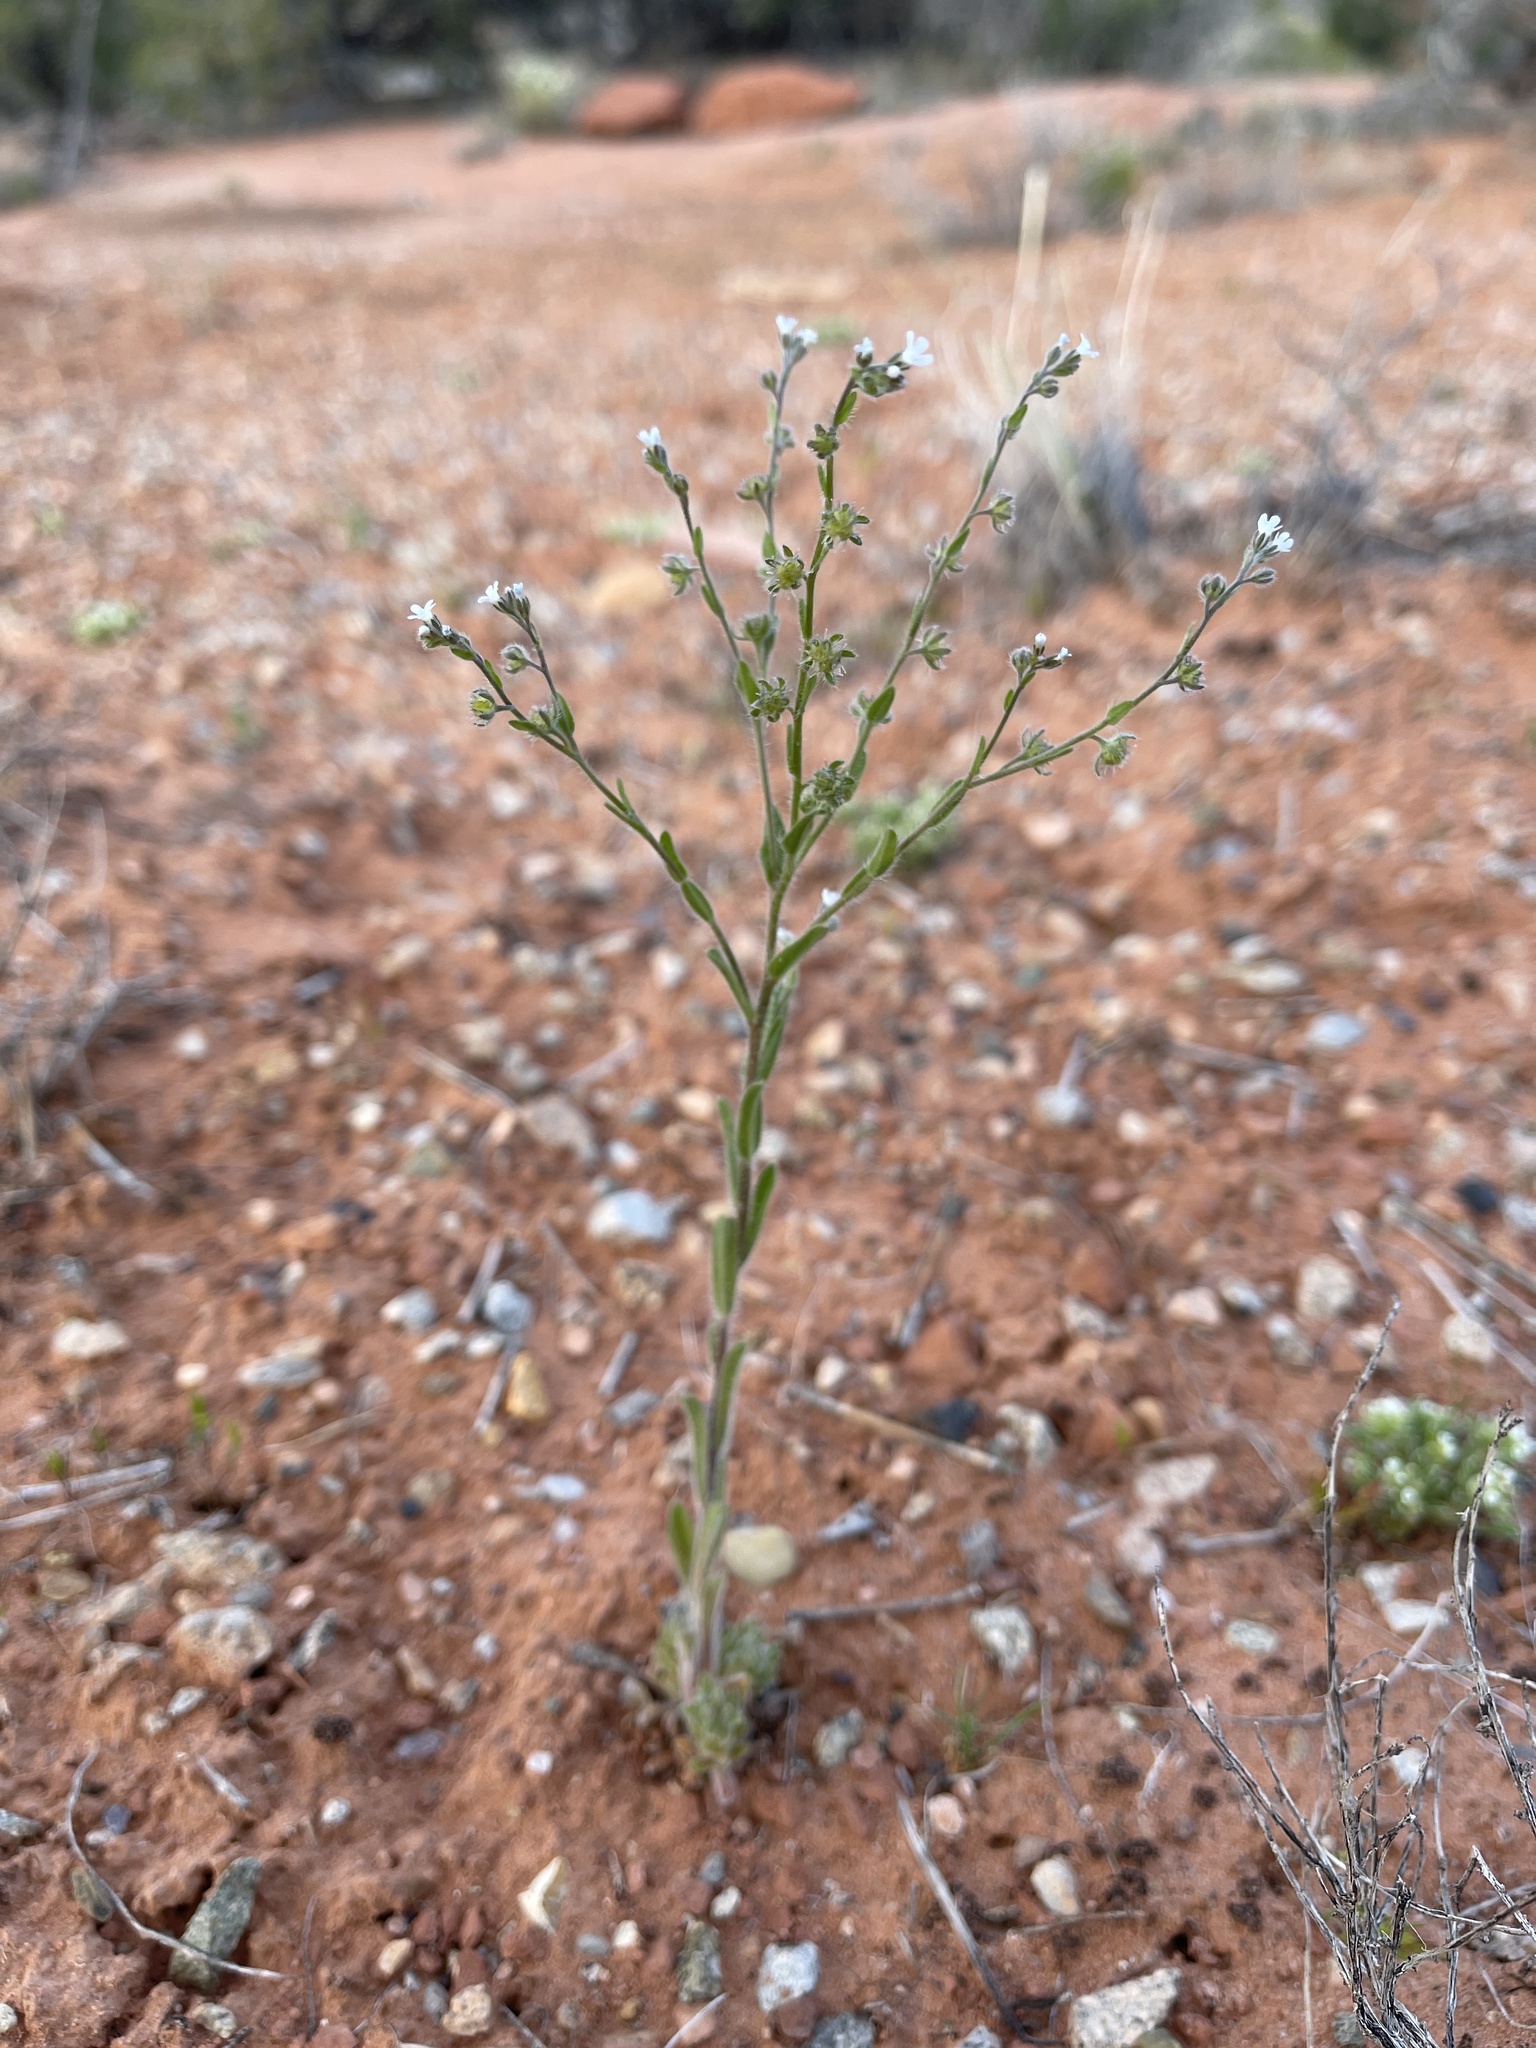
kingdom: Plantae
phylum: Tracheophyta
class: Magnoliopsida
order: Boraginales
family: Boraginaceae
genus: Lappula
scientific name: Lappula occidentalis
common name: Western stickseed
